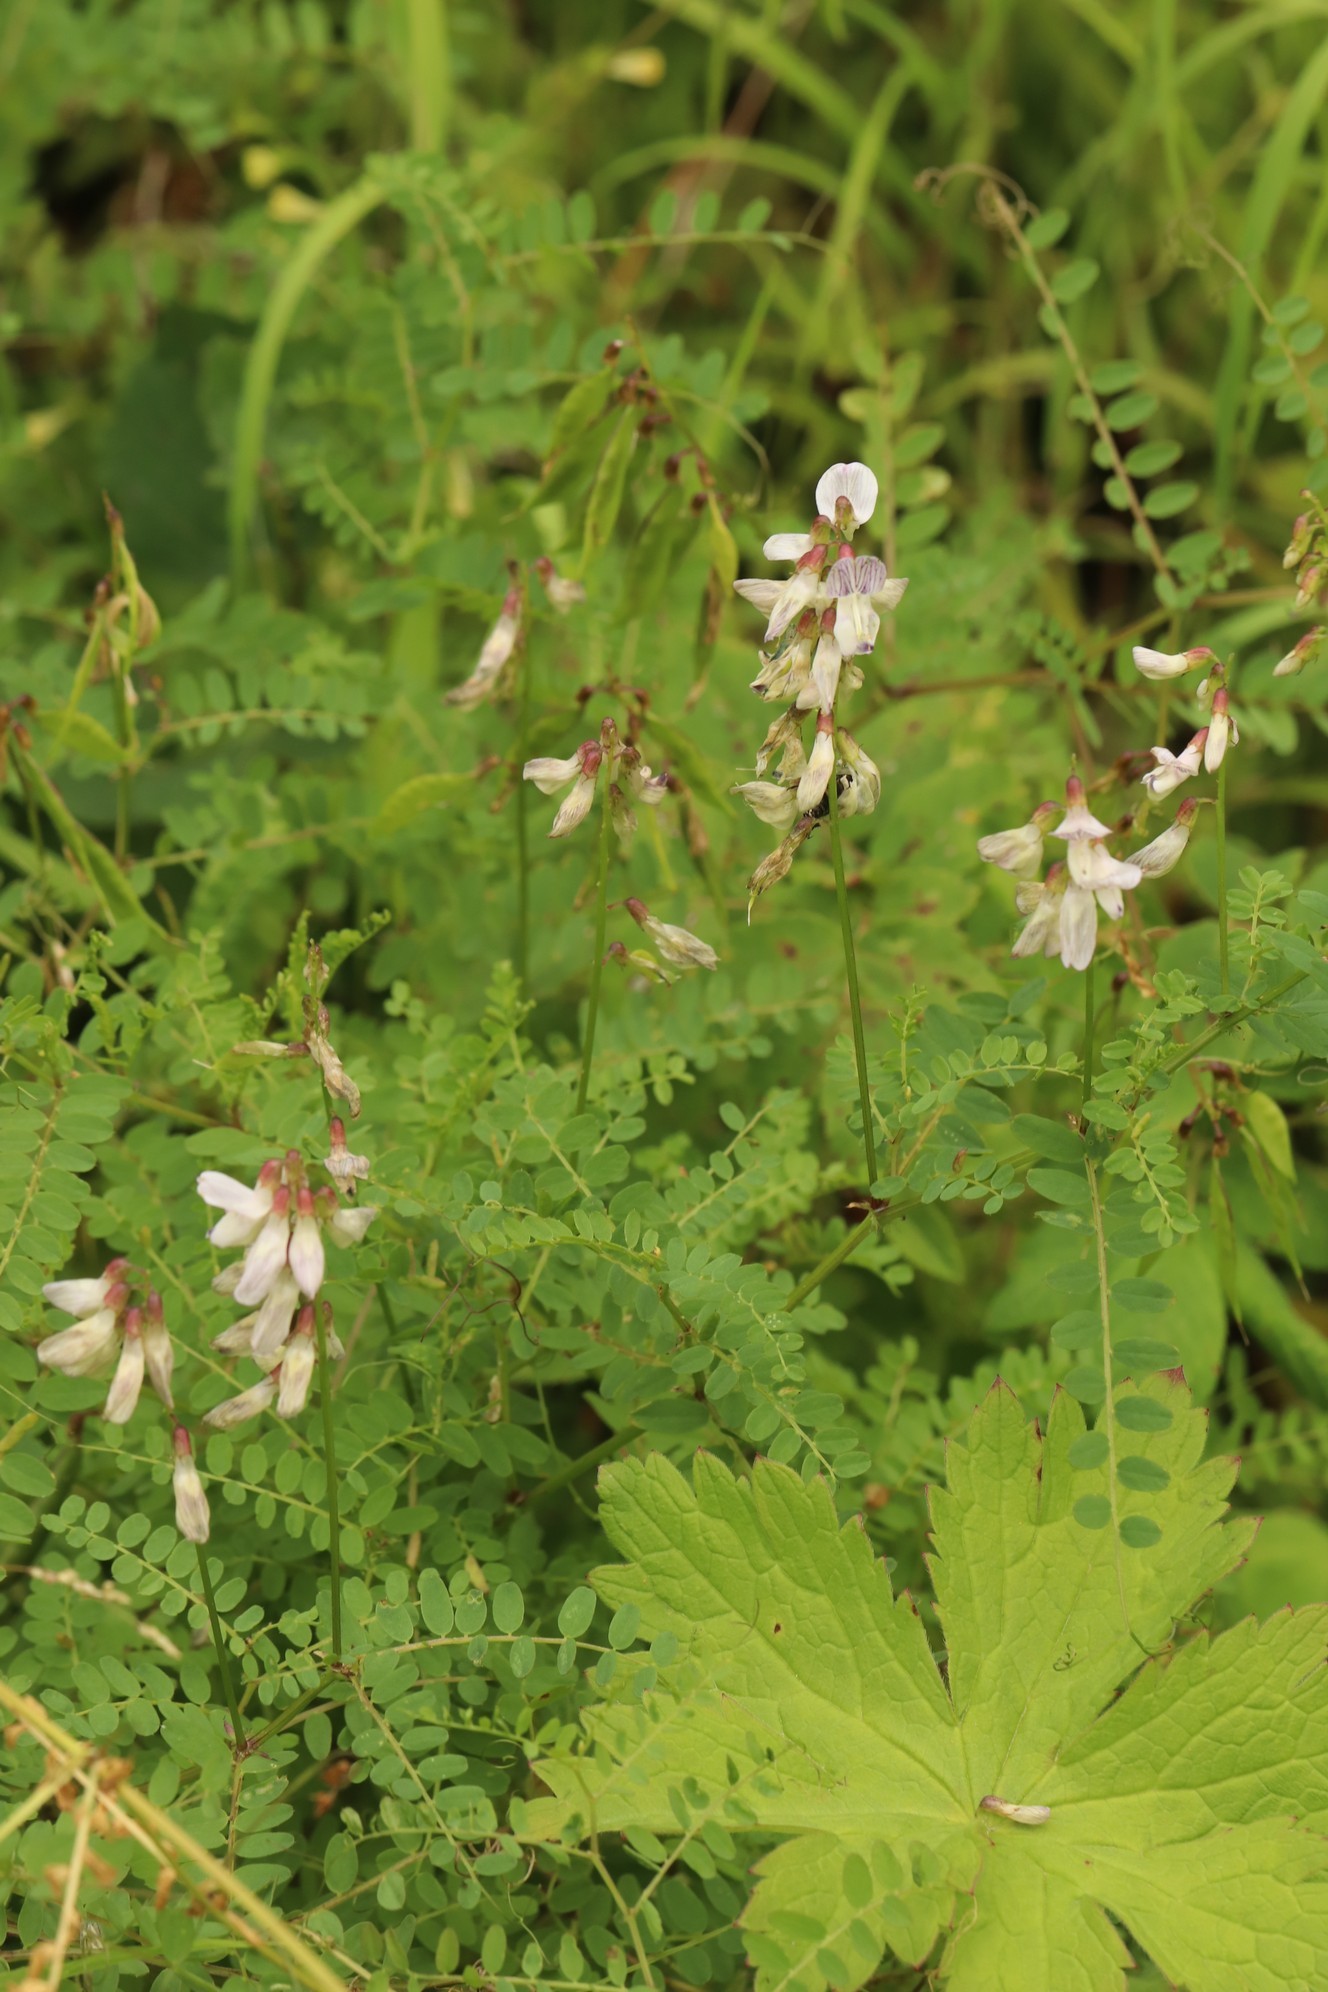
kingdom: Plantae
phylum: Tracheophyta
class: Magnoliopsida
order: Fabales
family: Fabaceae
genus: Vicia
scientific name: Vicia sylvatica
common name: Wood vetch
